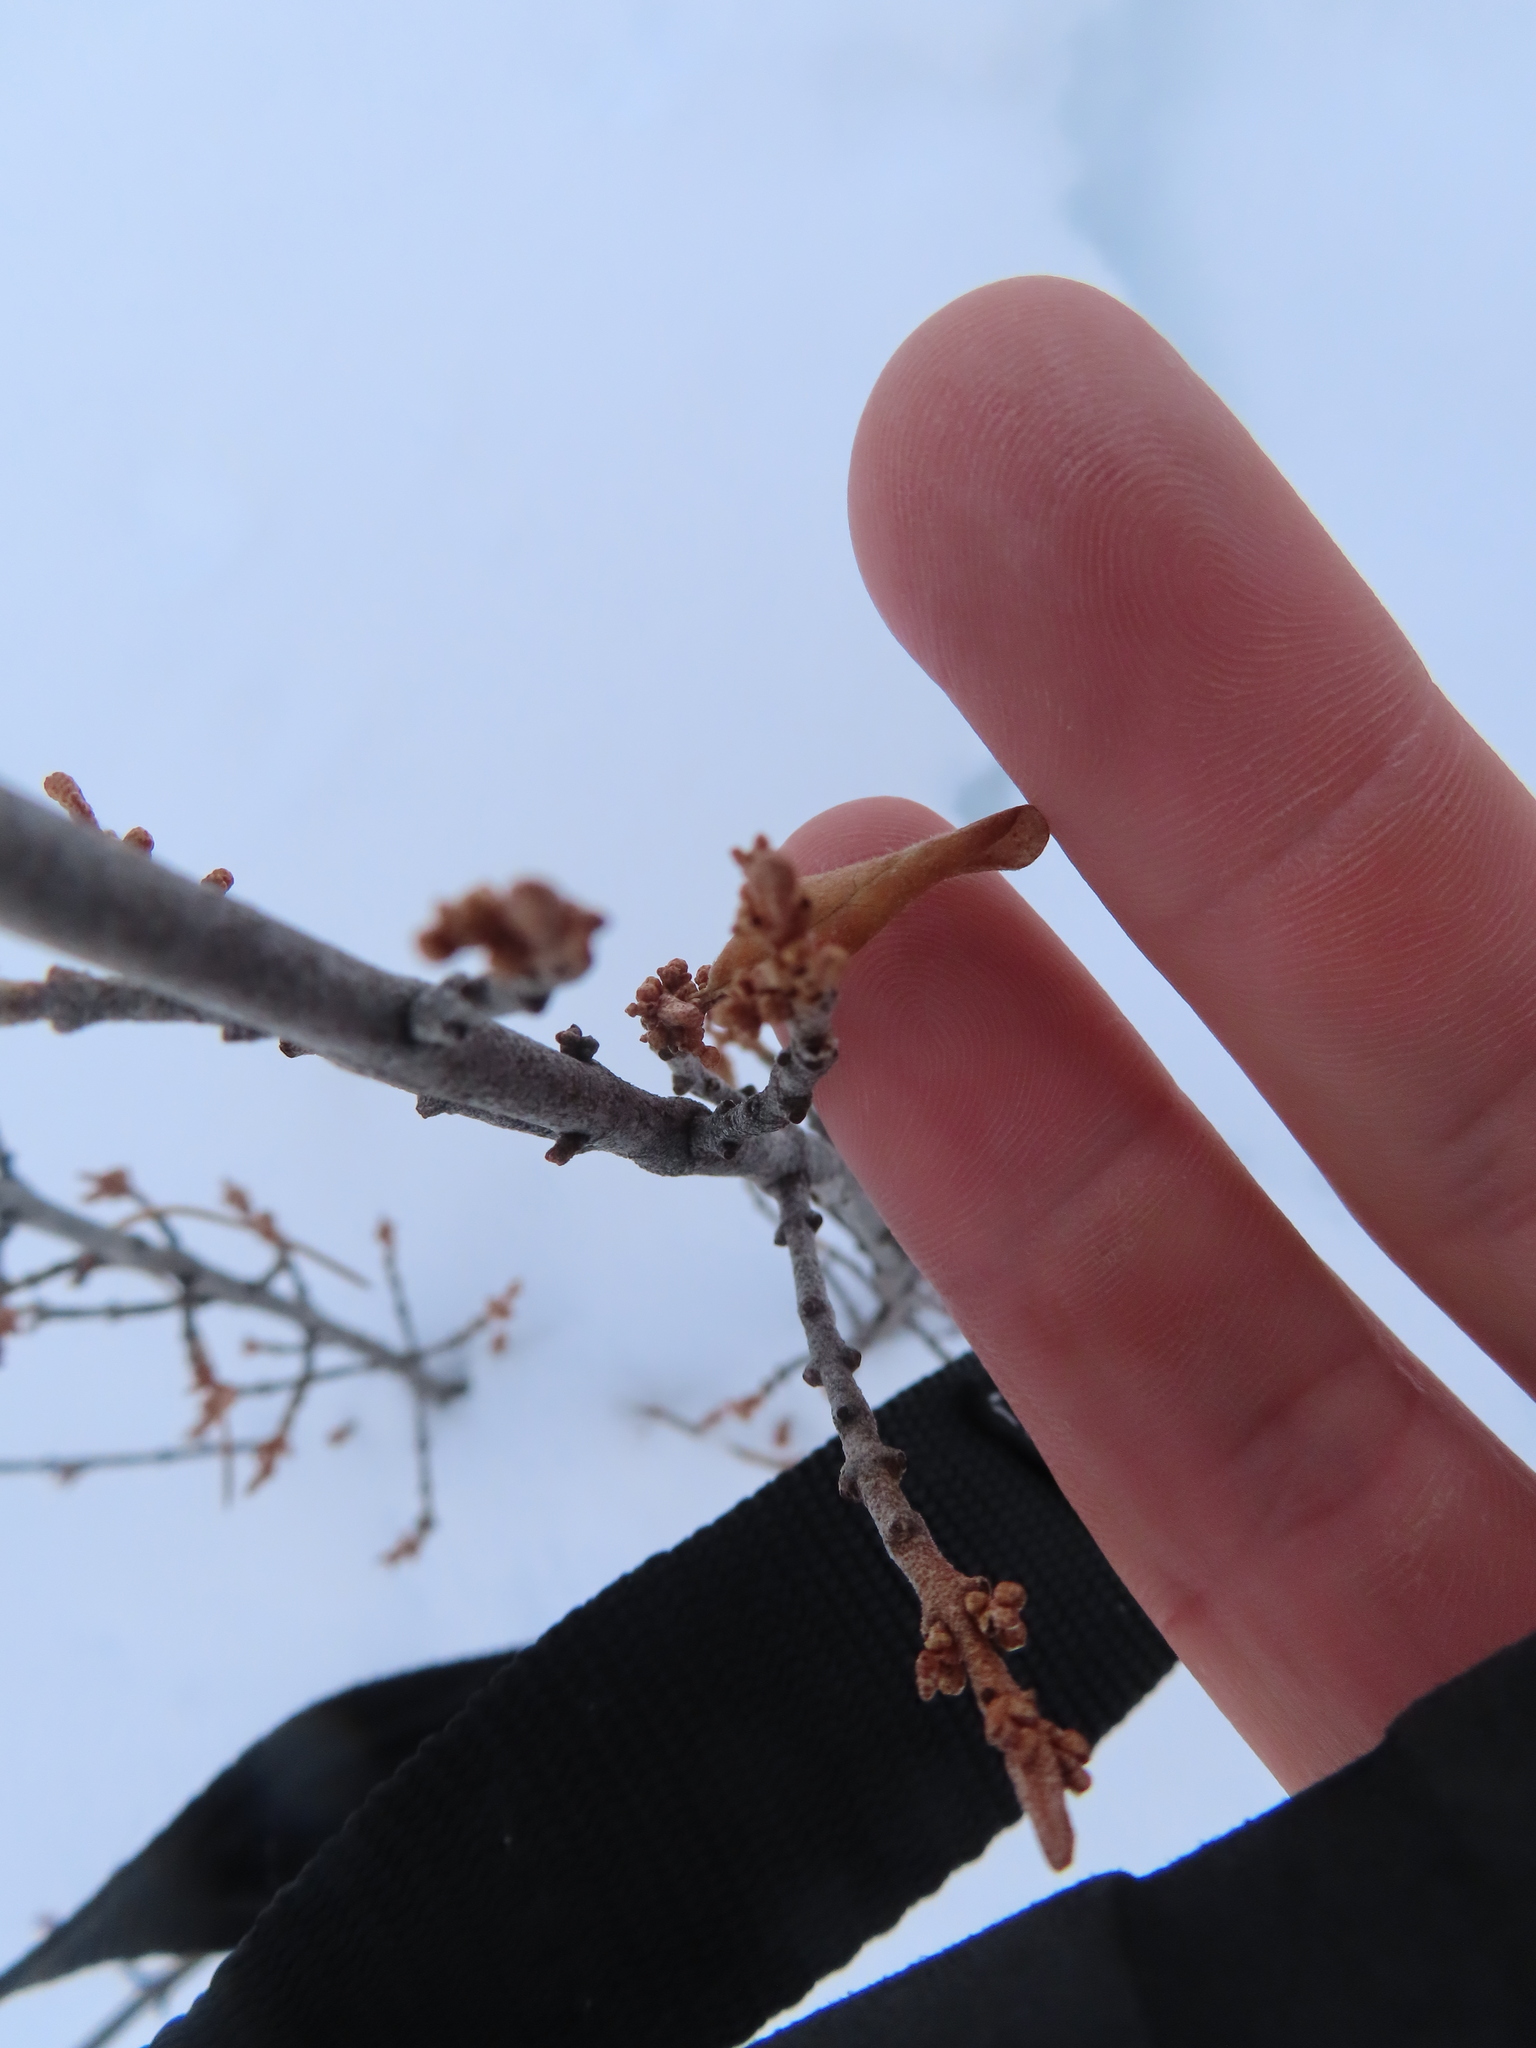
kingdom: Plantae
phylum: Tracheophyta
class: Magnoliopsida
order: Rosales
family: Elaeagnaceae
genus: Shepherdia
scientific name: Shepherdia canadensis
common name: Soapberry
